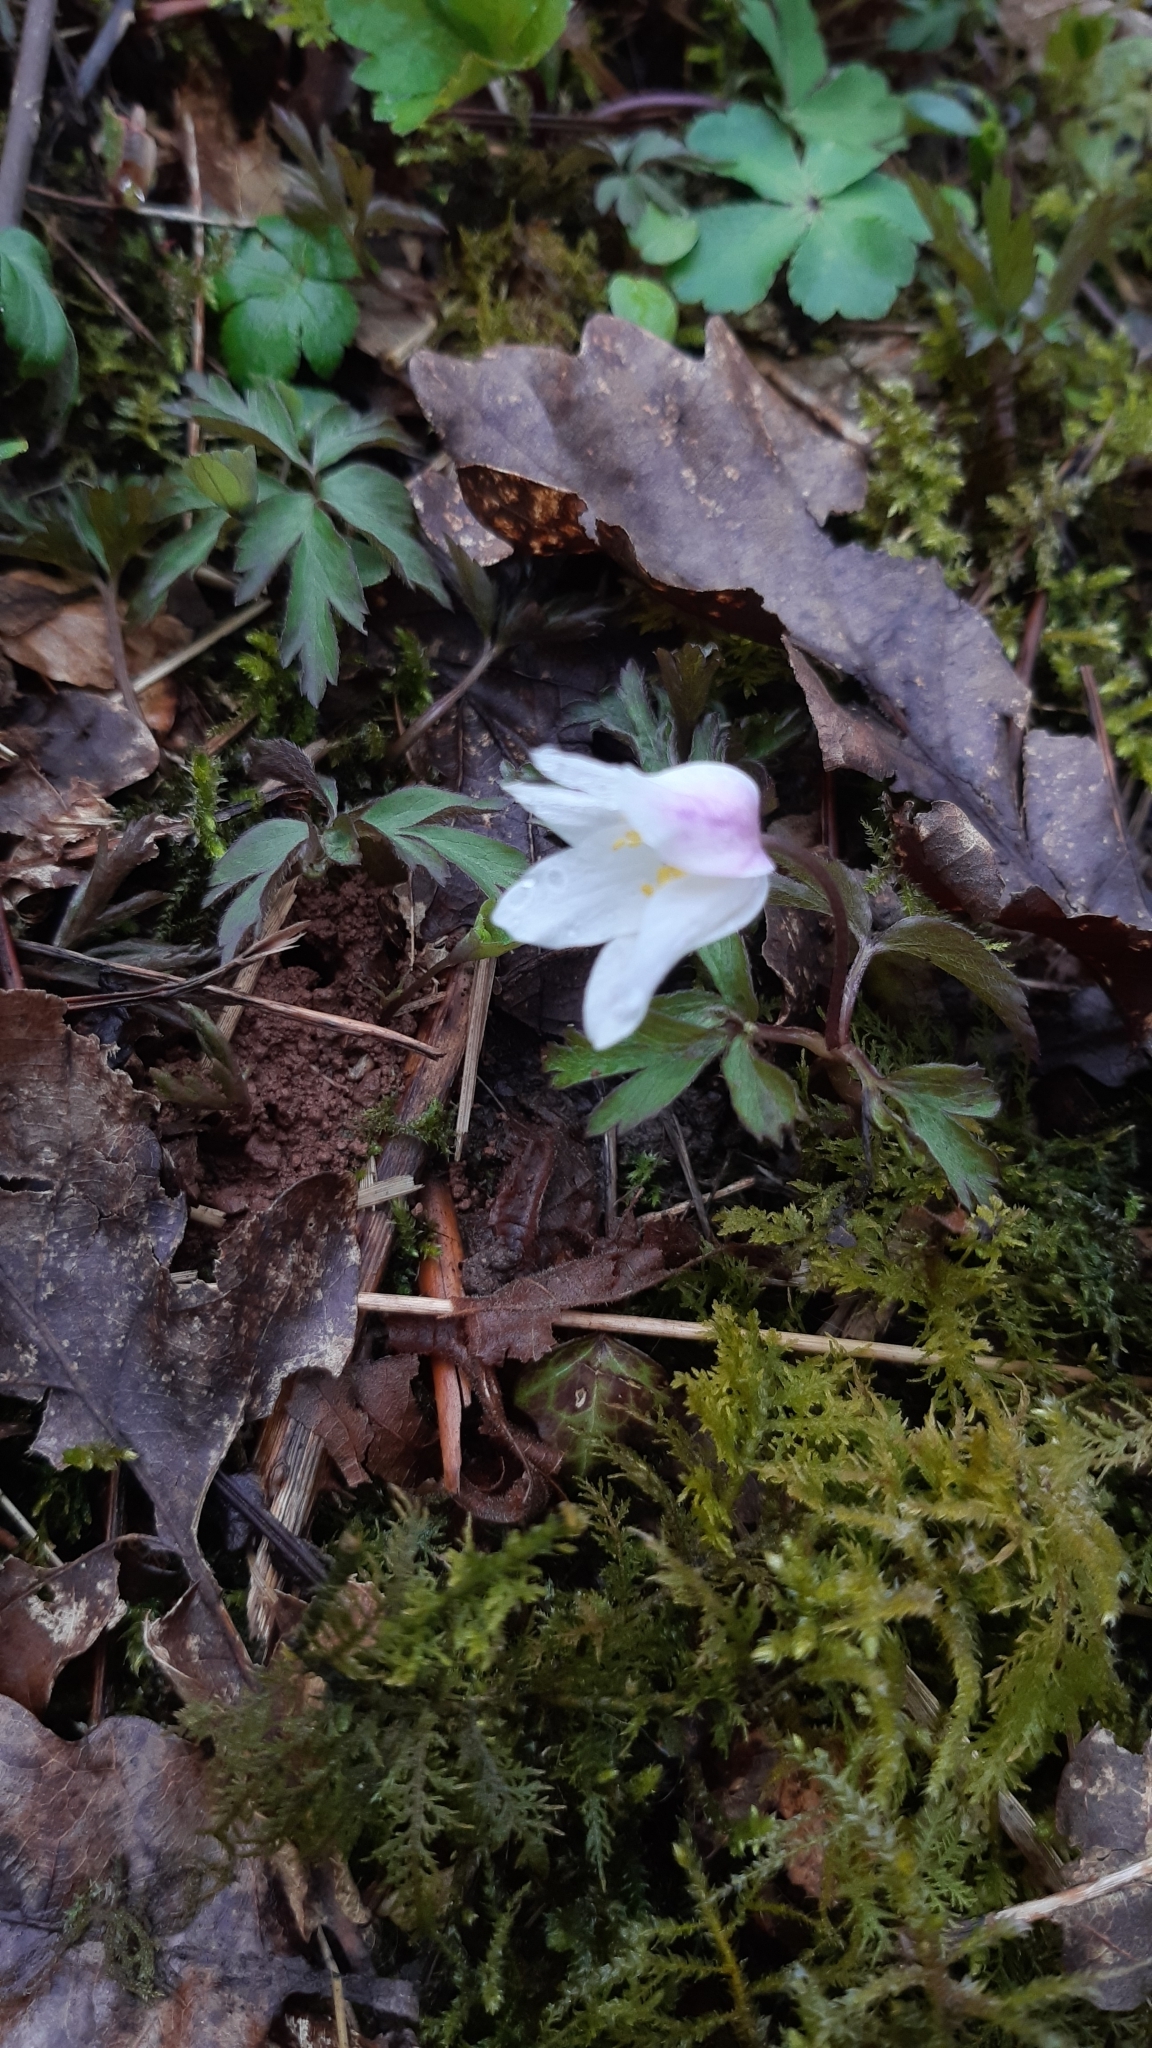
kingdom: Plantae
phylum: Tracheophyta
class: Magnoliopsida
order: Ranunculales
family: Ranunculaceae
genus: Anemone
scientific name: Anemone nemorosa
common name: Wood anemone
